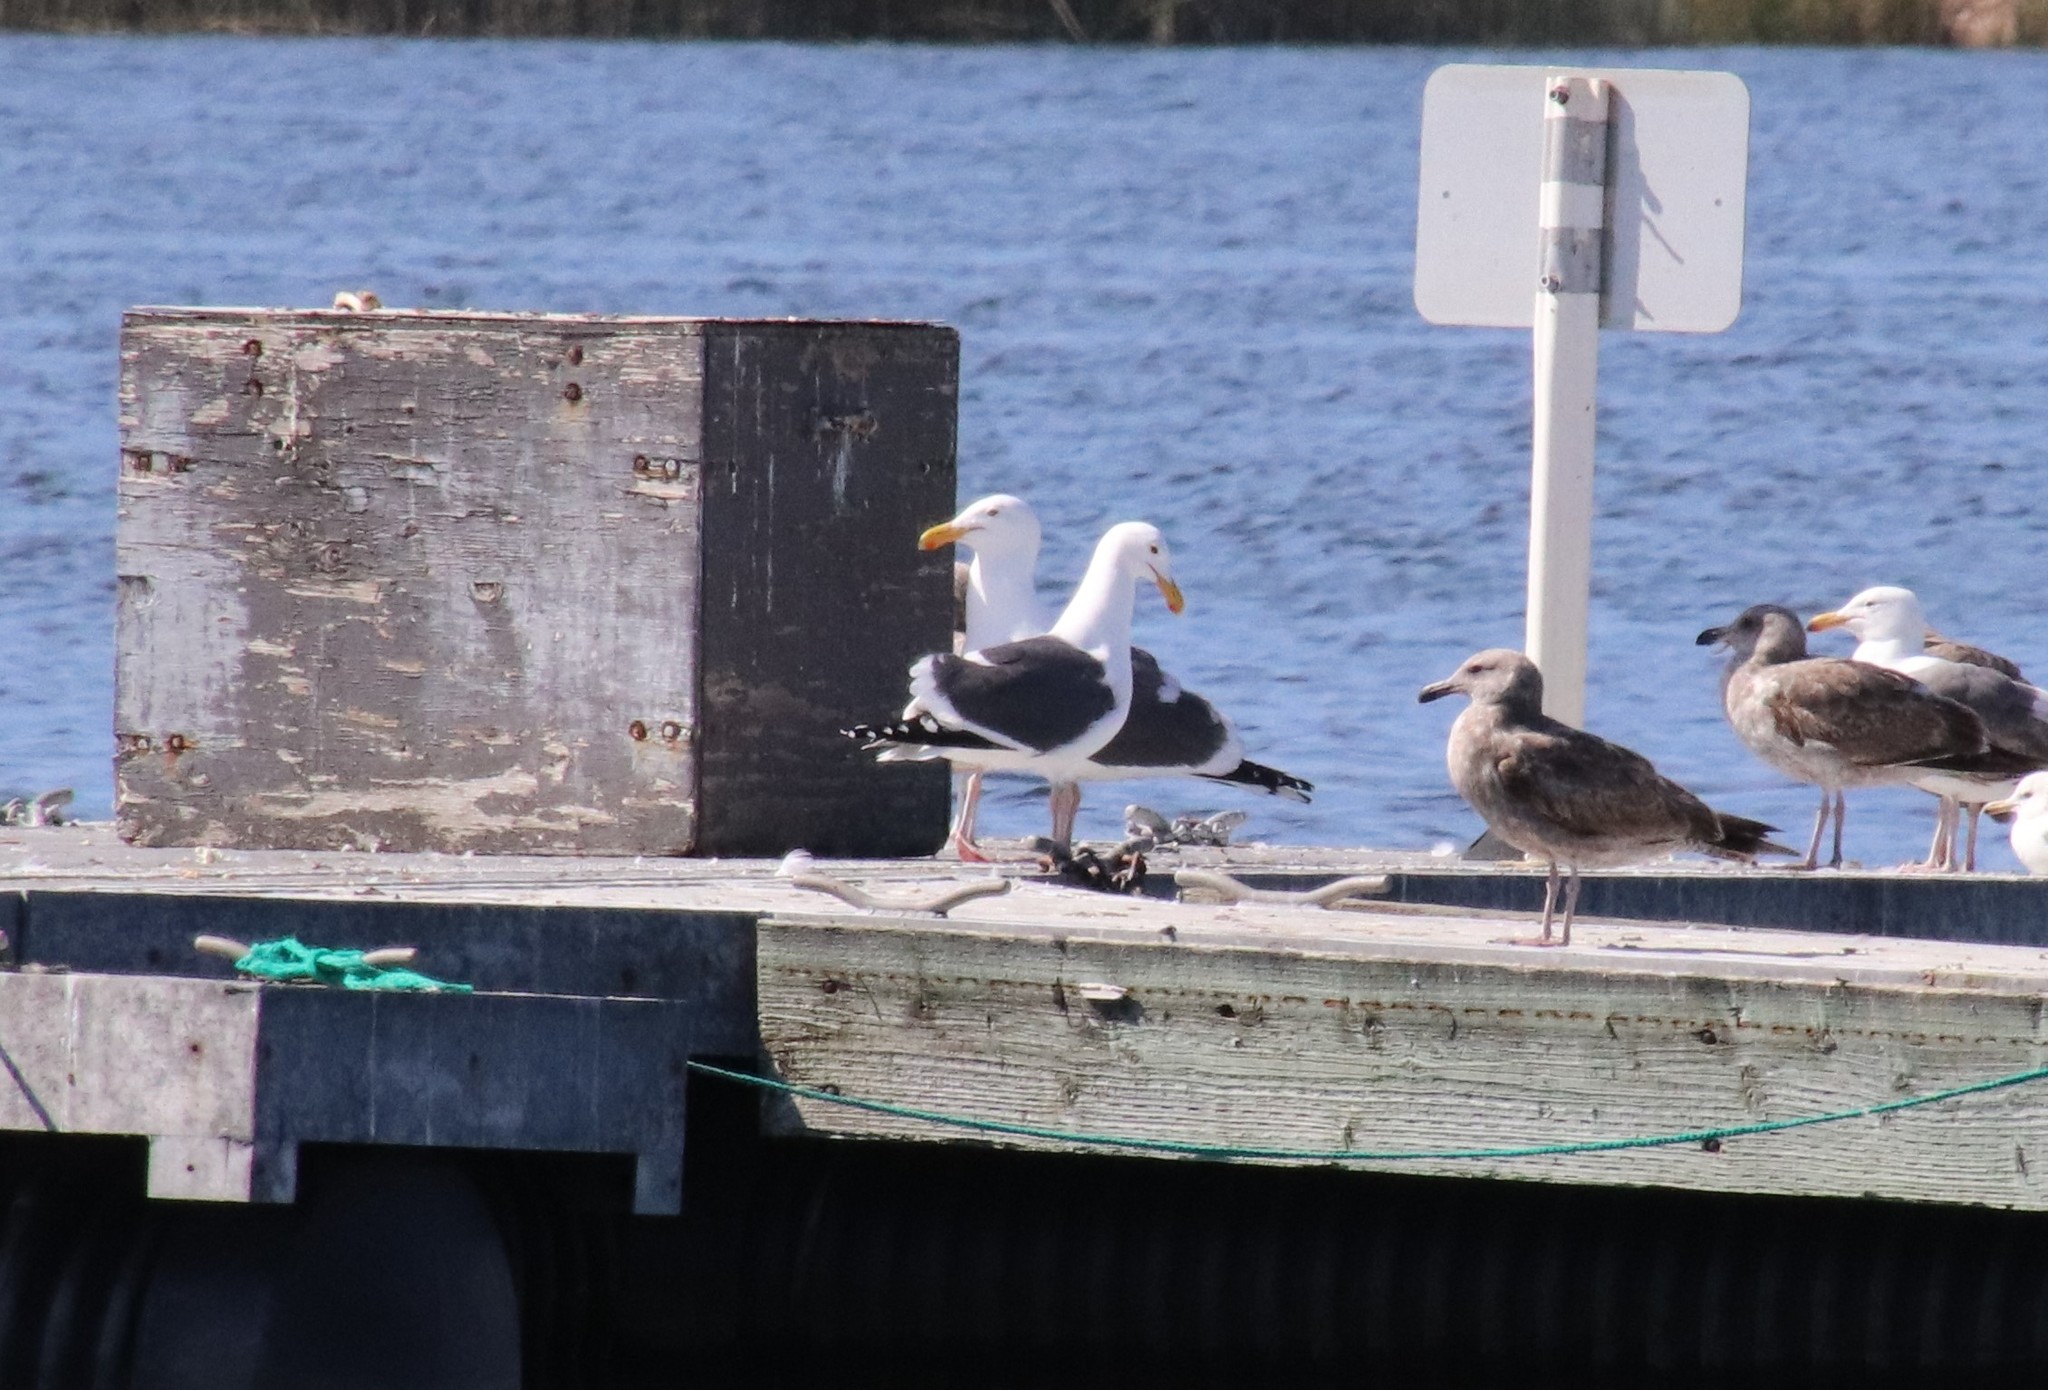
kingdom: Animalia
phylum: Chordata
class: Aves
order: Charadriiformes
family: Laridae
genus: Larus
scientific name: Larus occidentalis
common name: Western gull
